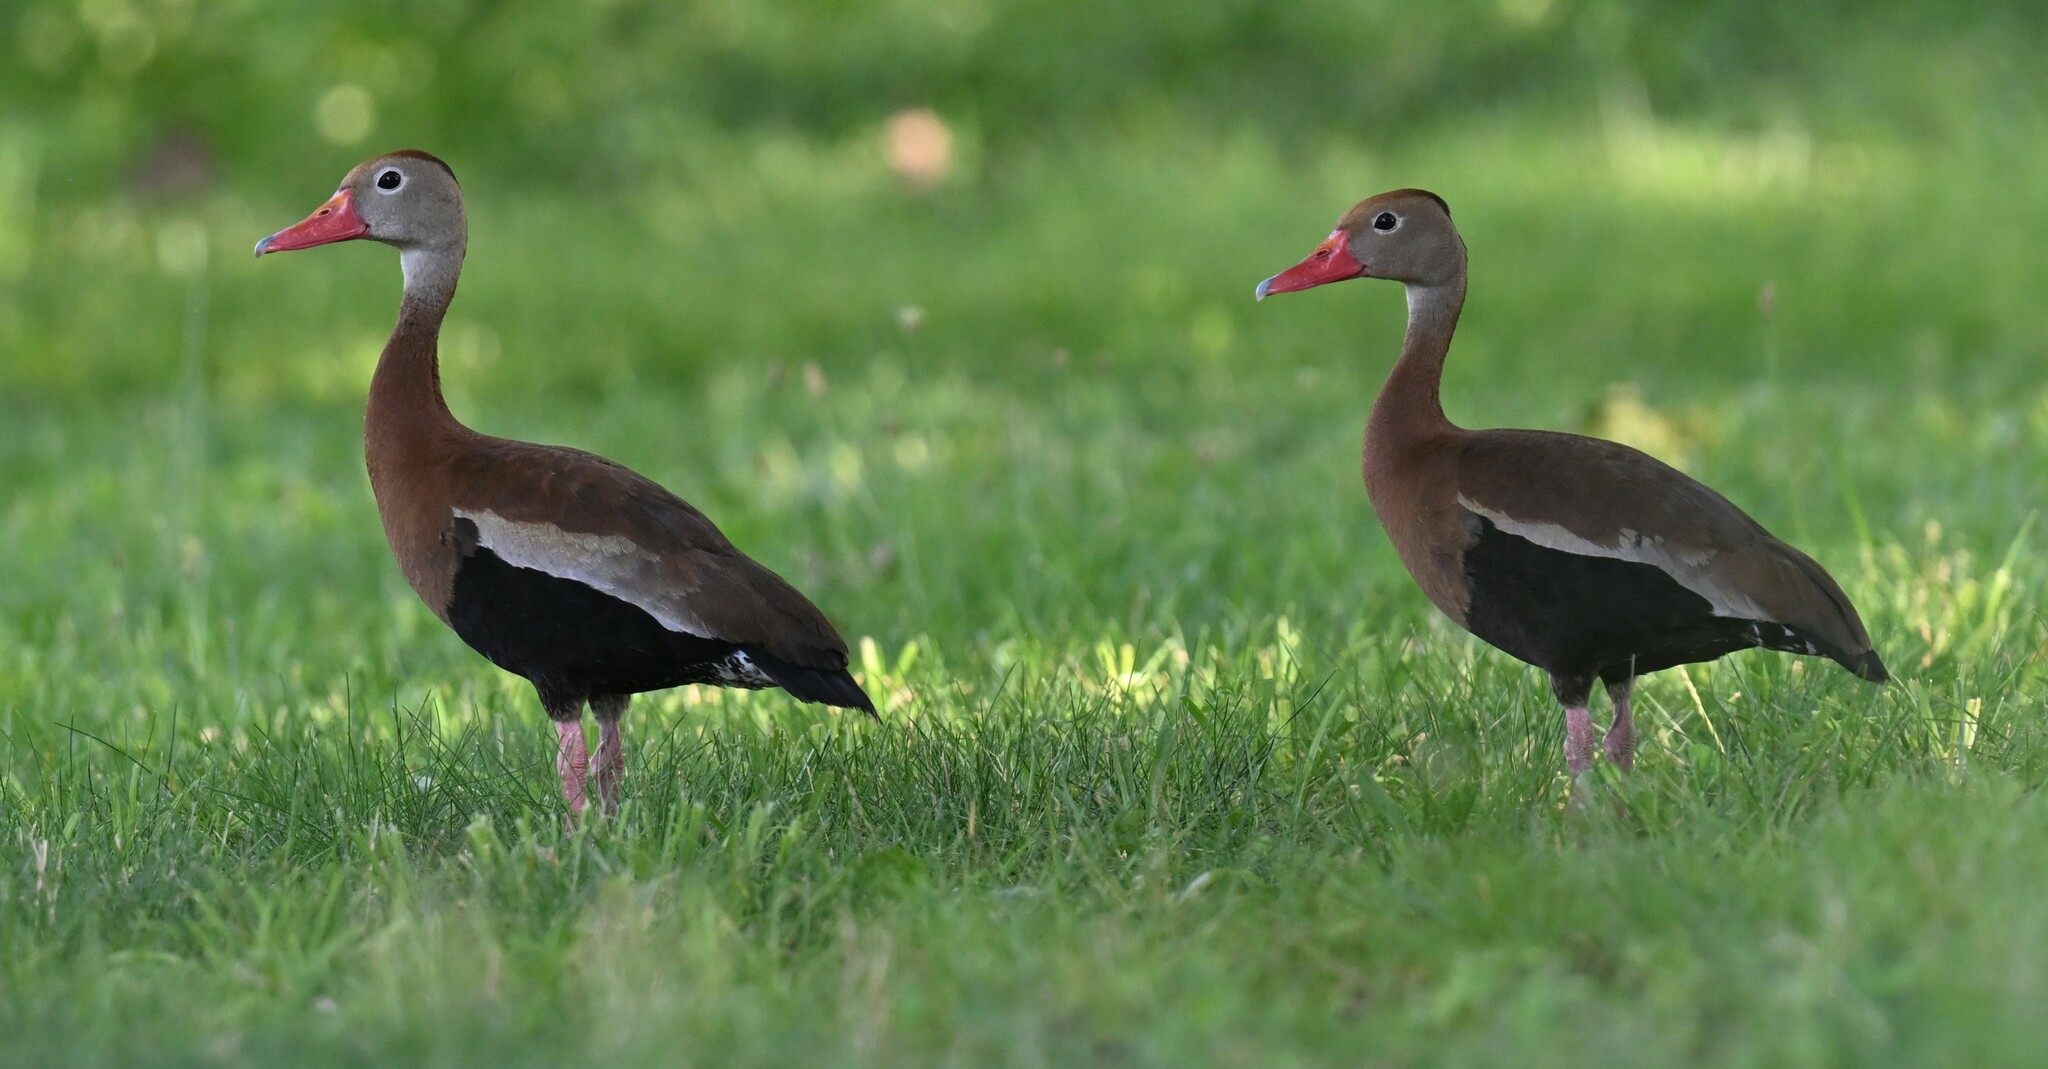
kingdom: Animalia
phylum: Chordata
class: Aves
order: Anseriformes
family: Anatidae
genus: Dendrocygna
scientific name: Dendrocygna autumnalis
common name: Black-bellied whistling duck
